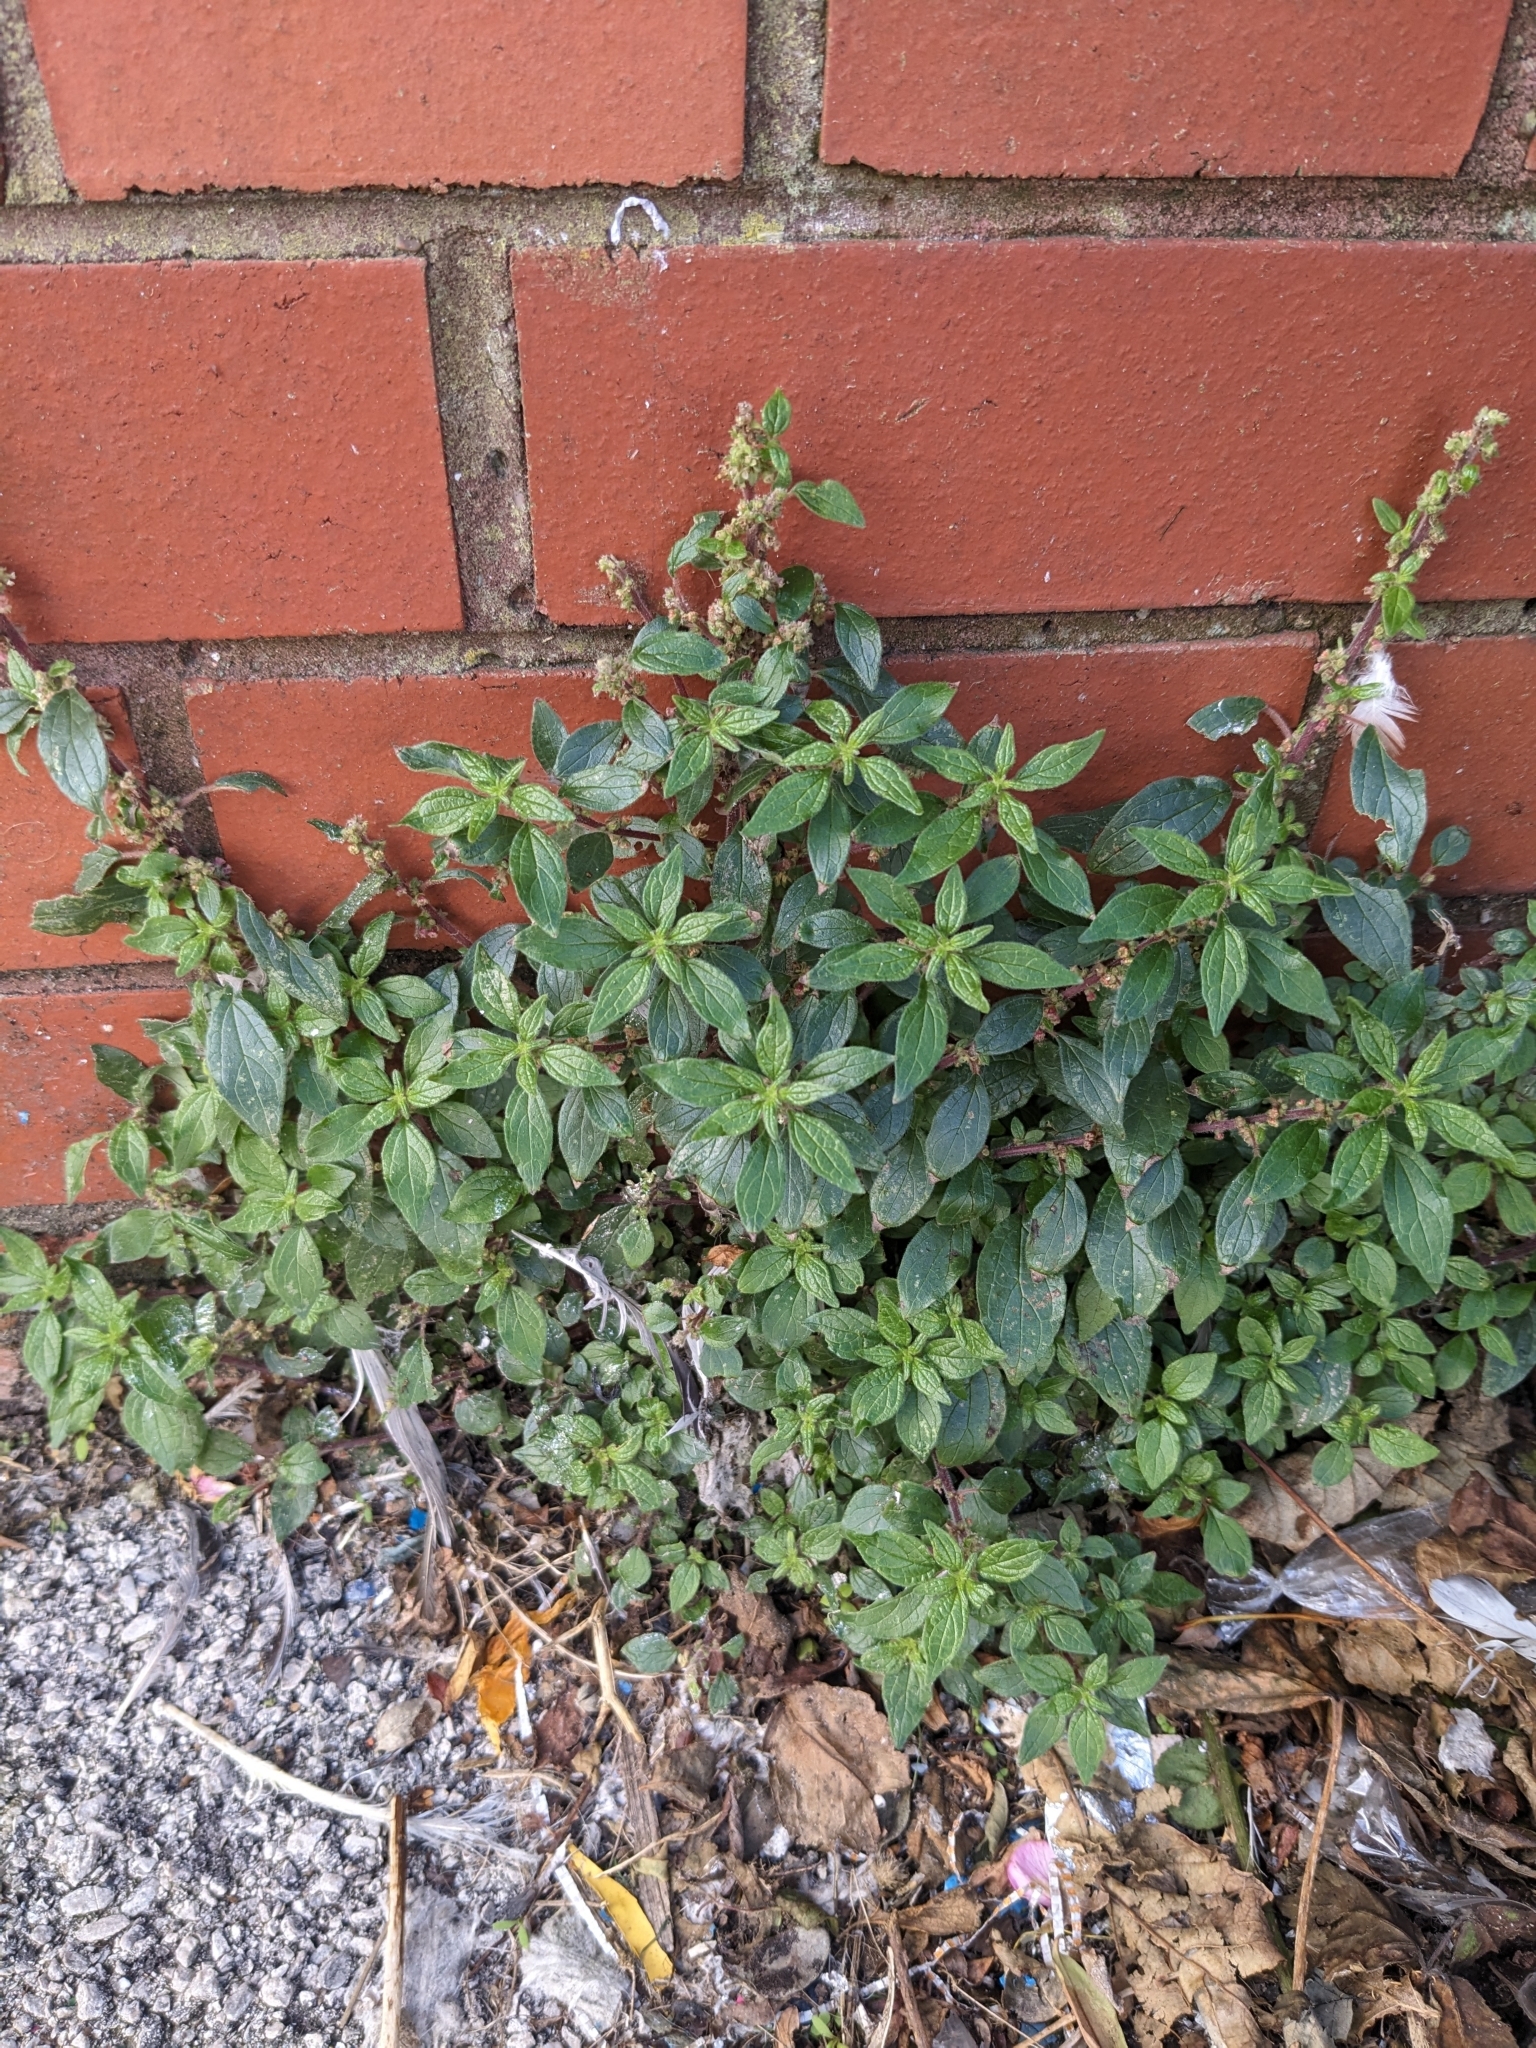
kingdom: Plantae
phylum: Tracheophyta
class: Magnoliopsida
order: Rosales
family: Urticaceae
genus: Parietaria
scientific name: Parietaria judaica
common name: Pellitory-of-the-wall
